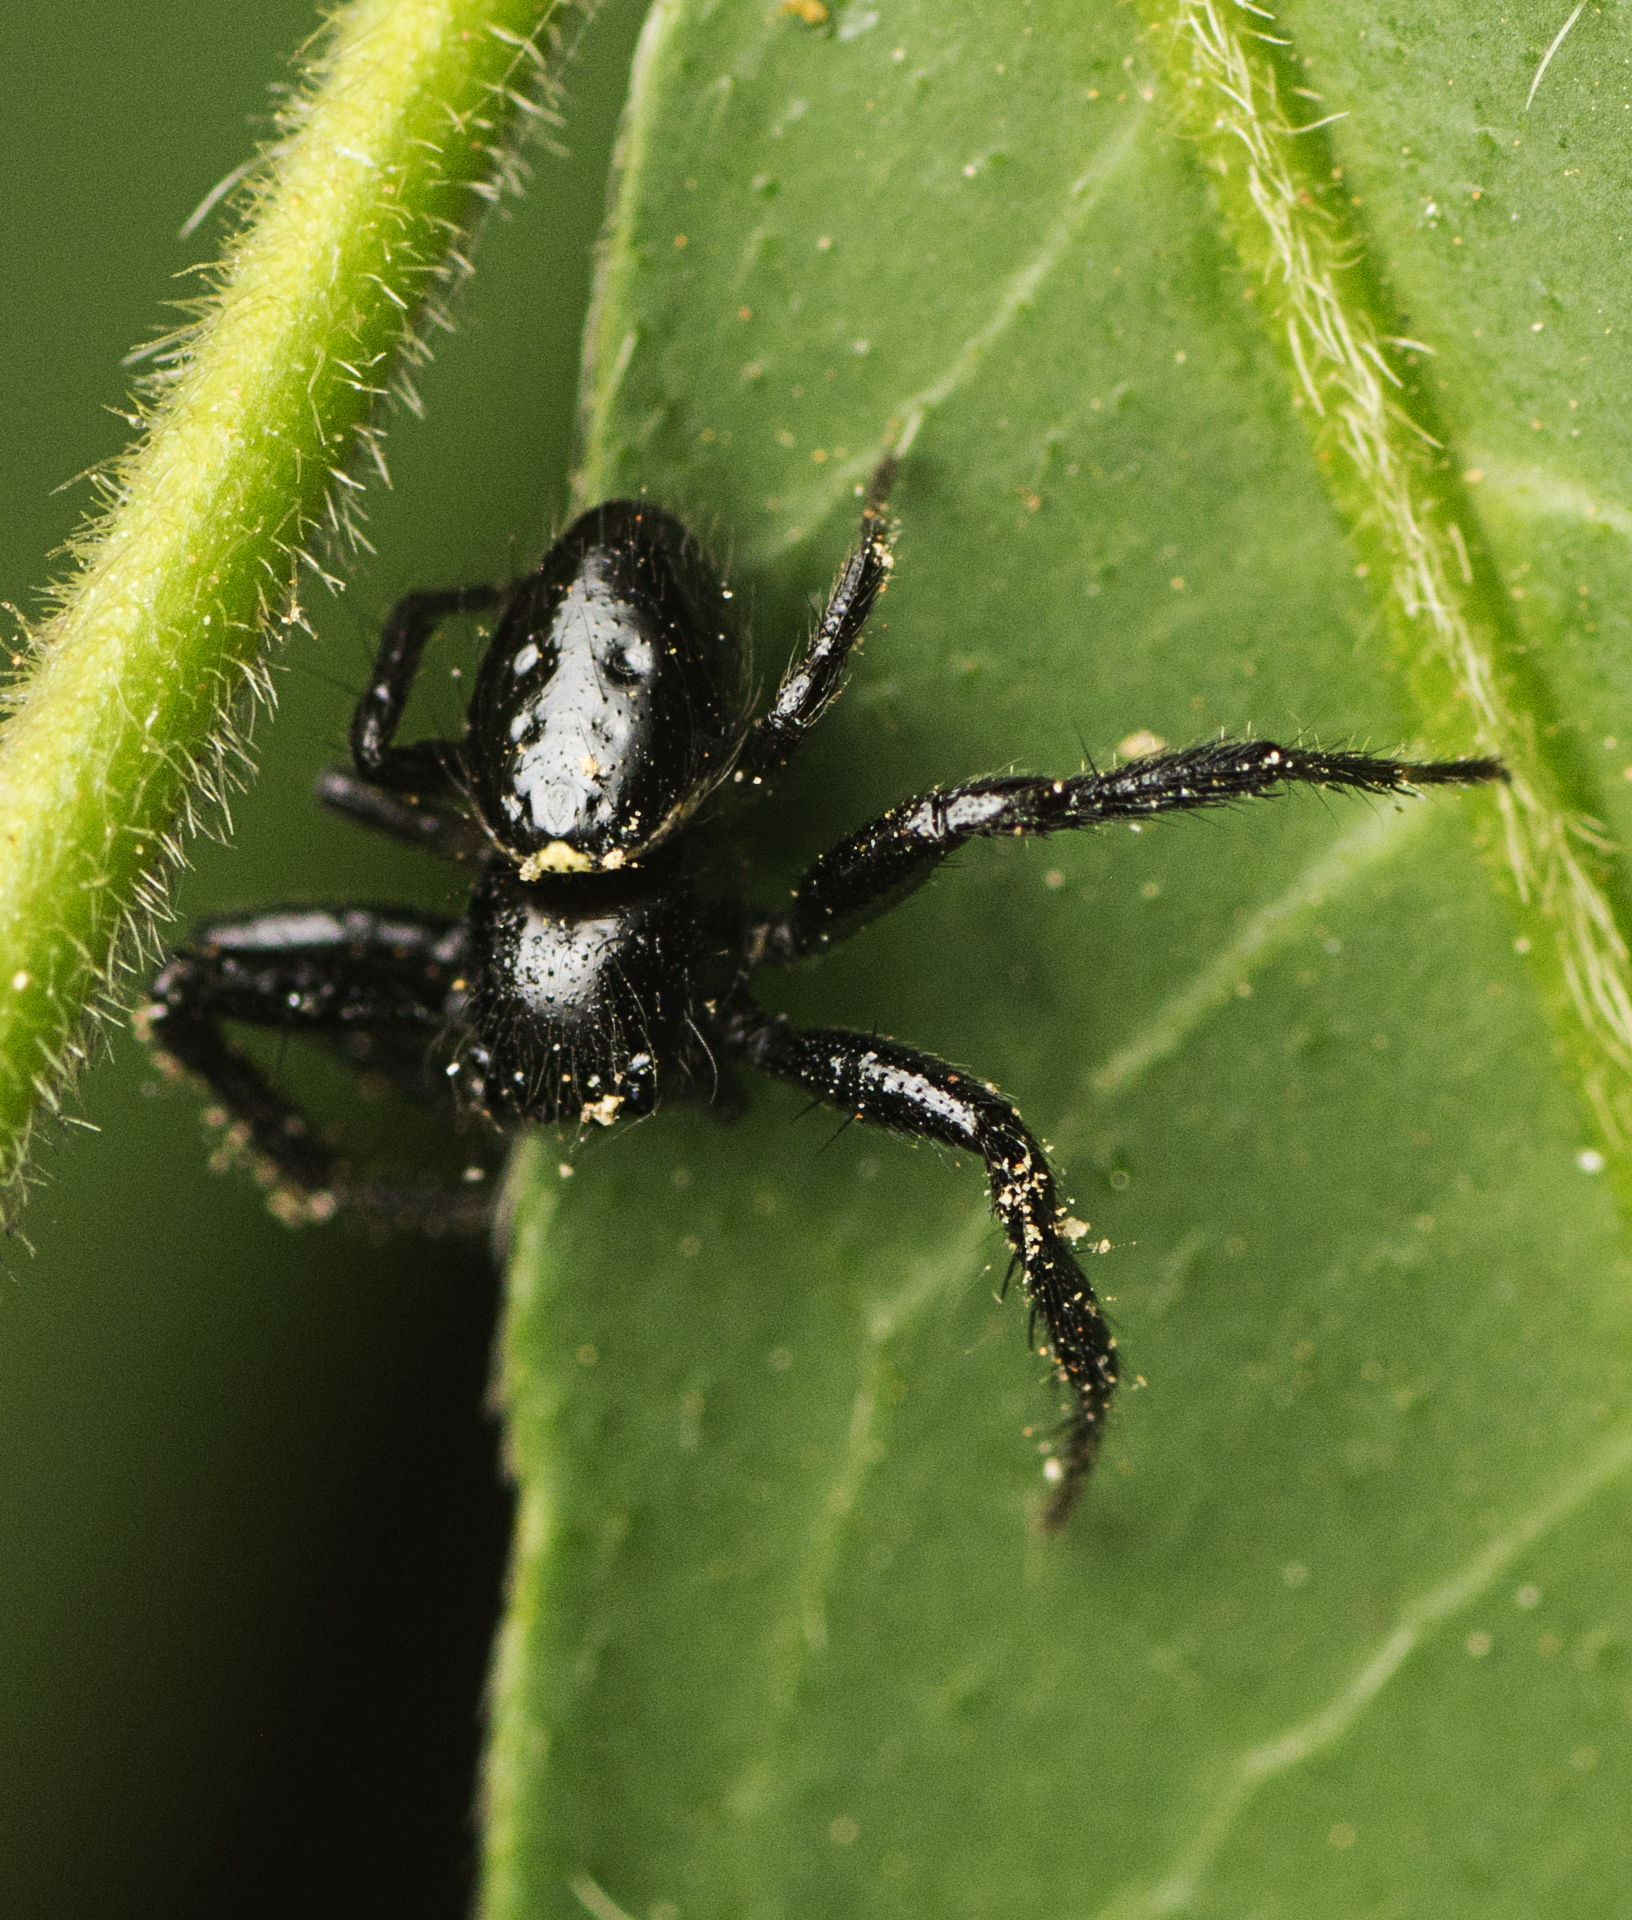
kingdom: Animalia
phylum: Arthropoda
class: Arachnida
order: Araneae
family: Thomisidae
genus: Xysticus
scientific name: Xysticus bimaculatus
